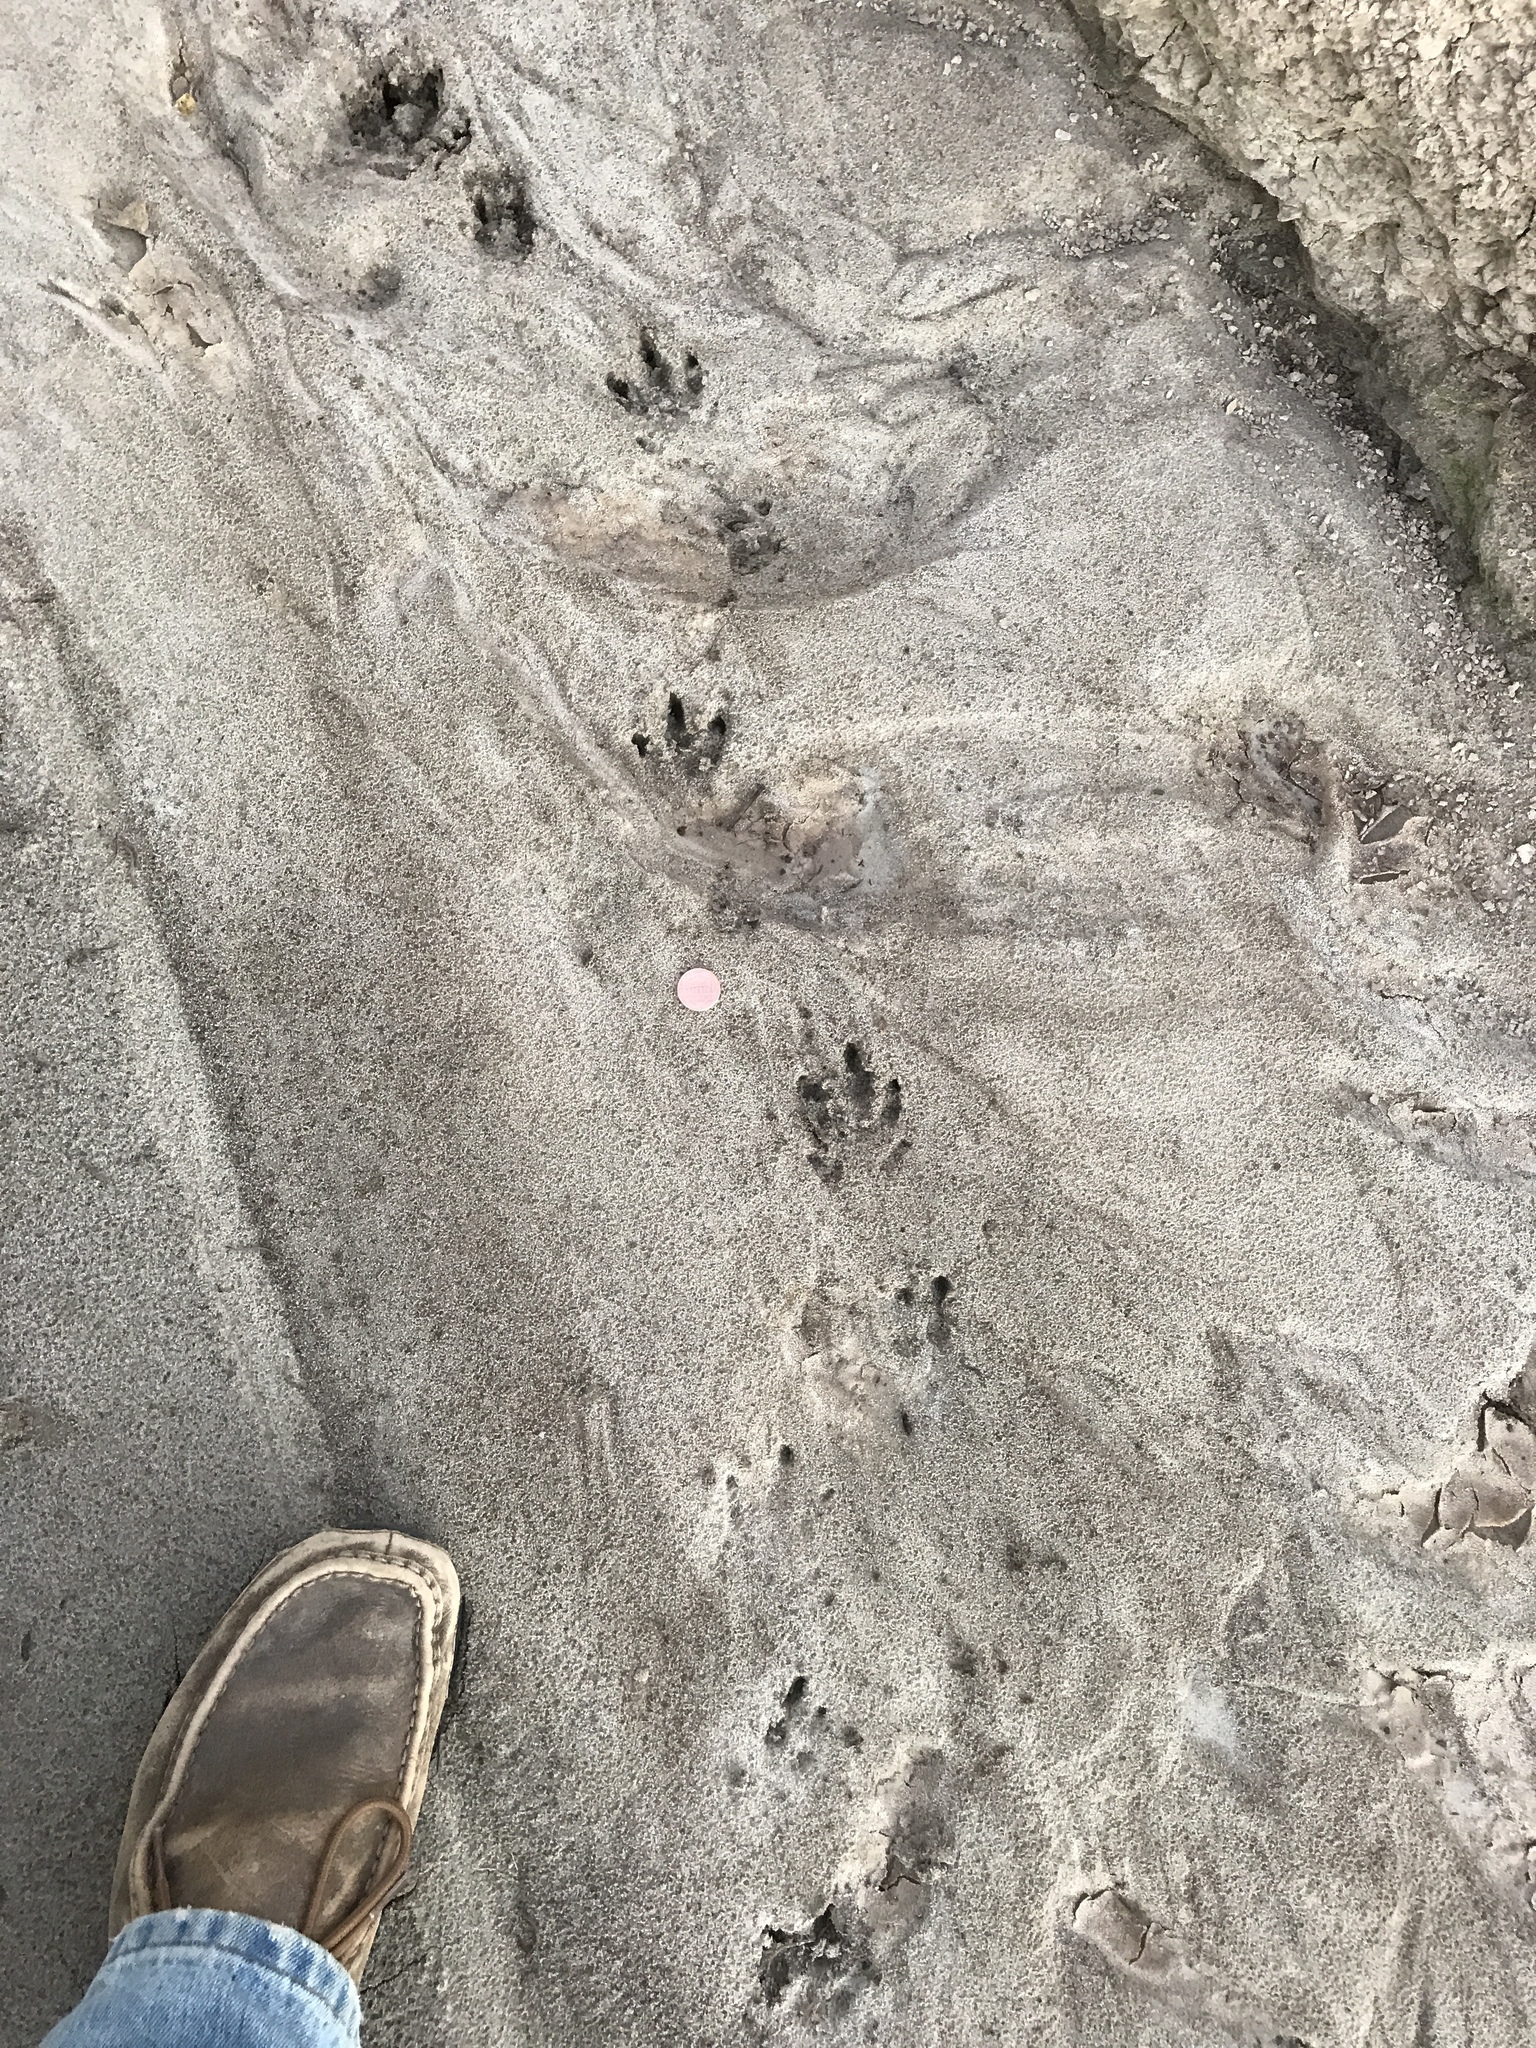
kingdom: Animalia
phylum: Chordata
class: Mammalia
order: Cingulata
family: Dasypodidae
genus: Dasypus
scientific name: Dasypus novemcinctus
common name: Nine-banded armadillo
